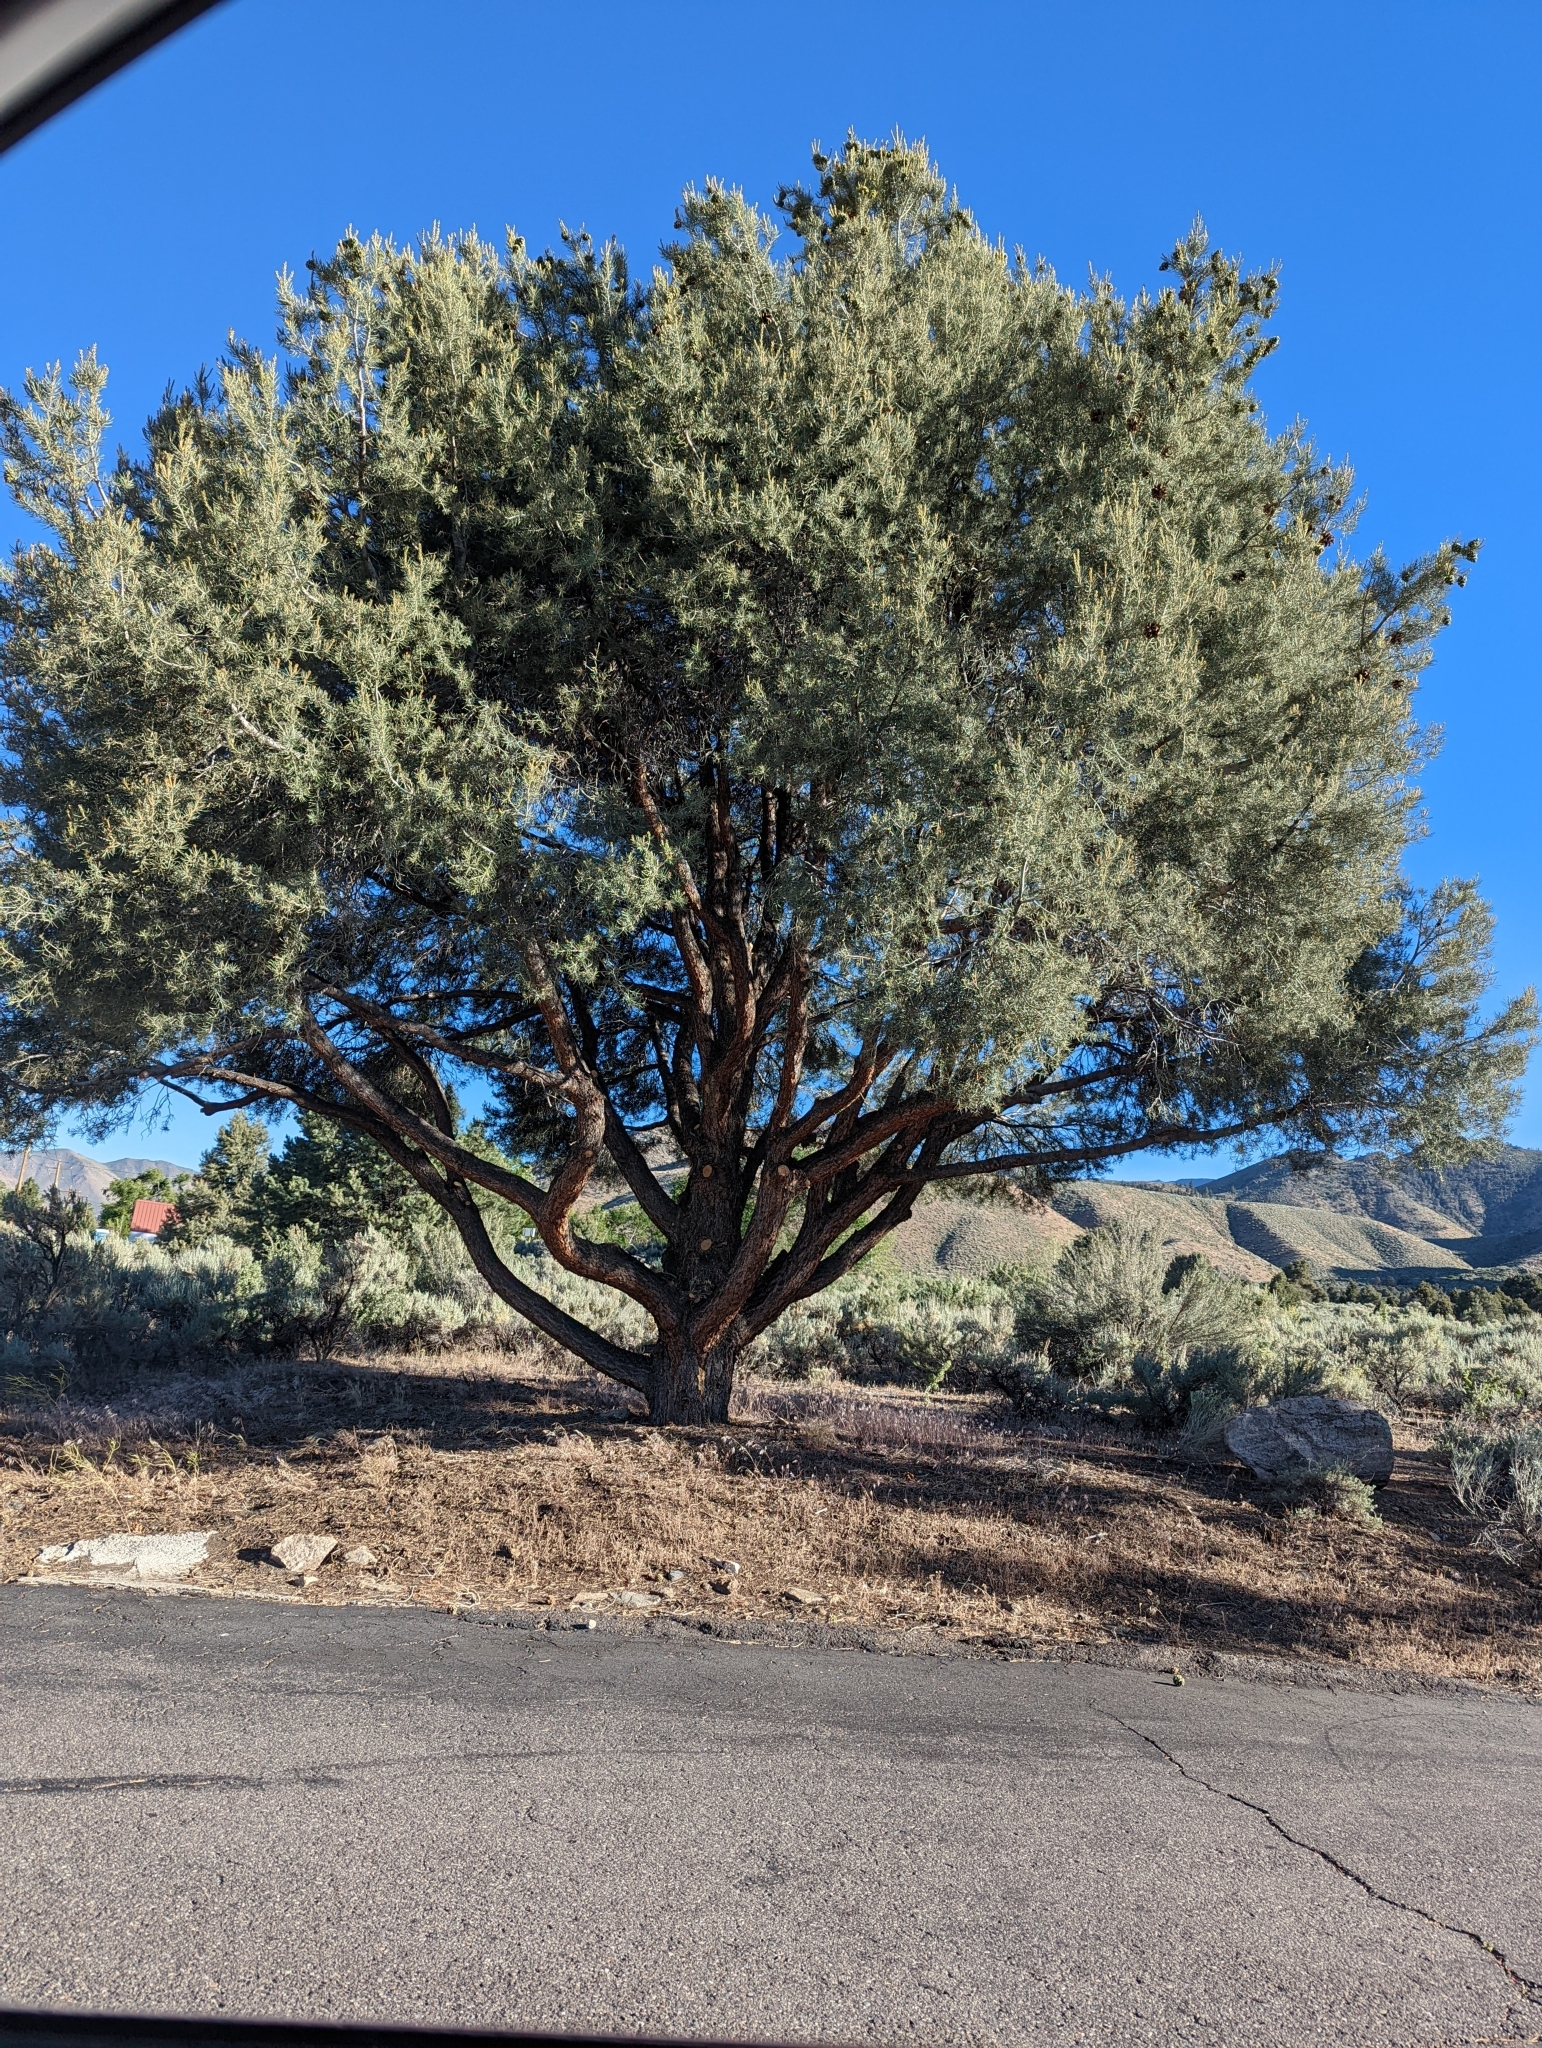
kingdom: Plantae
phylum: Tracheophyta
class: Pinopsida
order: Pinales
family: Pinaceae
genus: Pinus
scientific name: Pinus monophylla
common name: One-leaved nut pine
